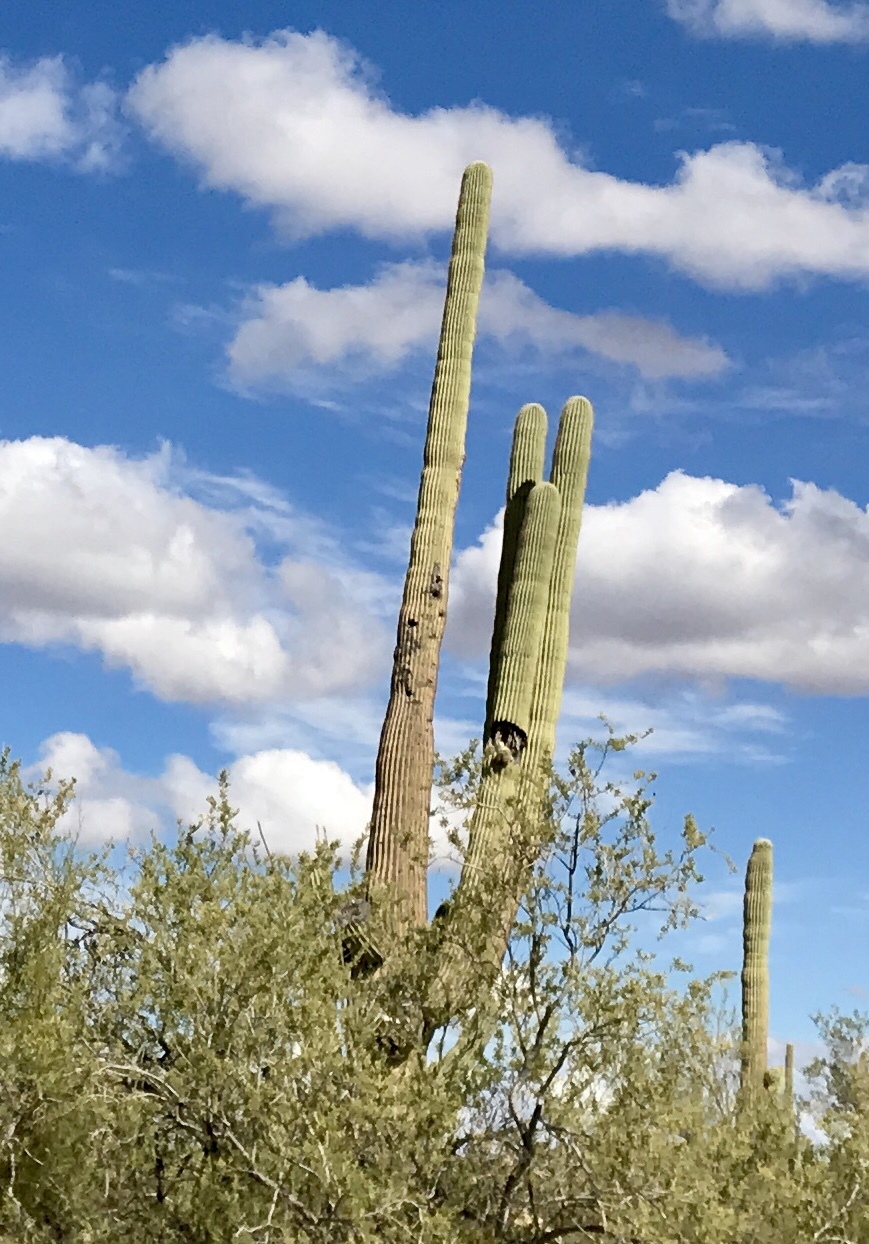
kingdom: Plantae
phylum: Tracheophyta
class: Magnoliopsida
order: Caryophyllales
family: Cactaceae
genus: Carnegiea
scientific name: Carnegiea gigantea
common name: Saguaro
